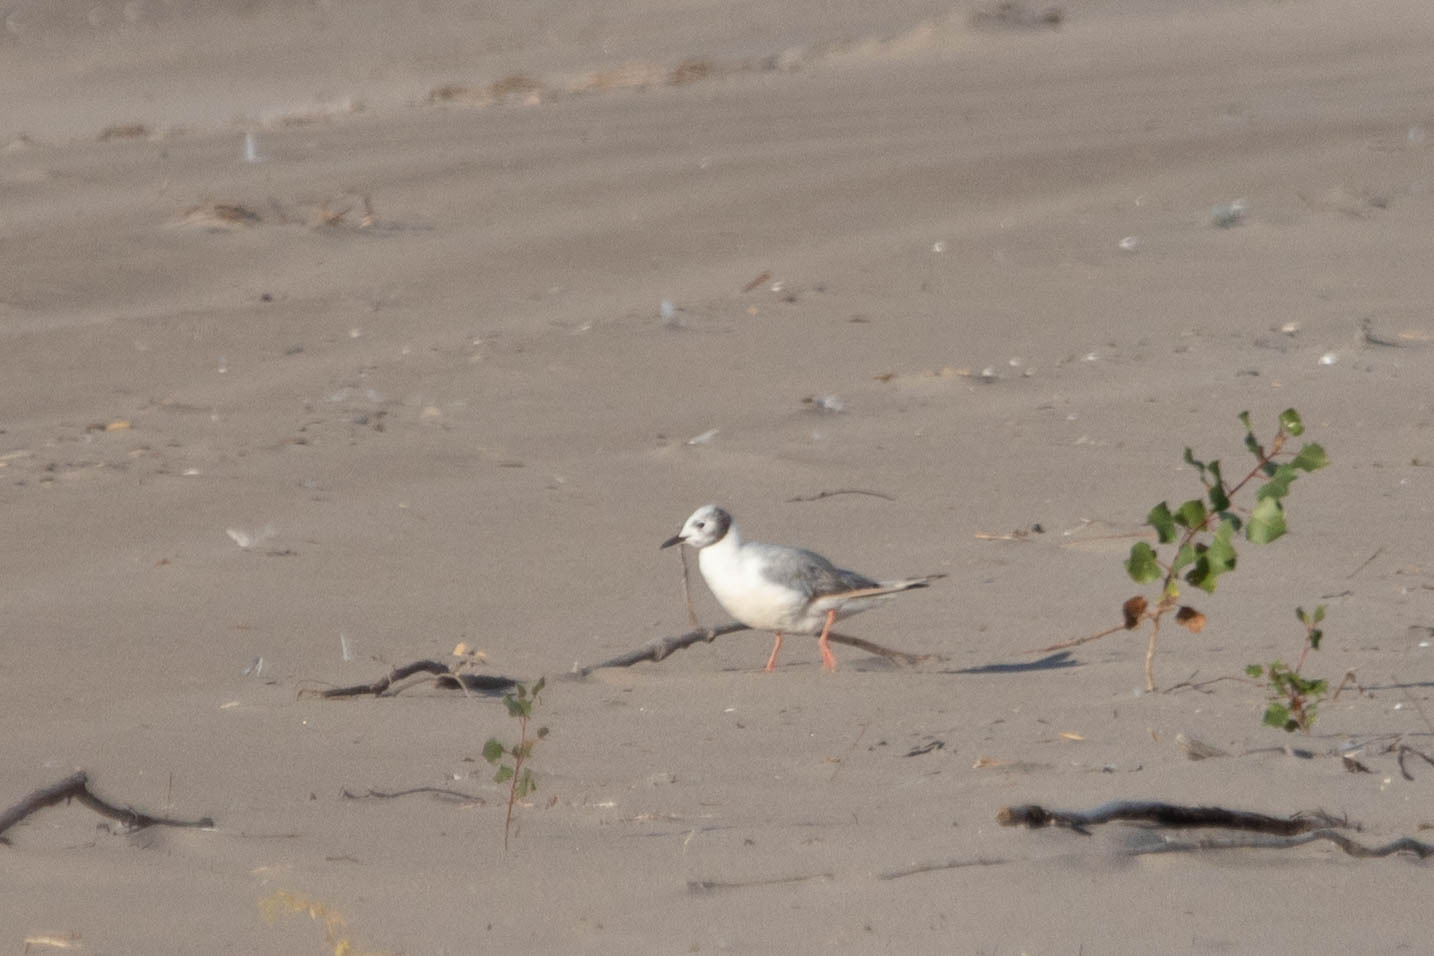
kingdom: Animalia
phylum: Chordata
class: Aves
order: Charadriiformes
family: Laridae
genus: Chroicocephalus
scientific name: Chroicocephalus philadelphia
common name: Bonaparte's gull
